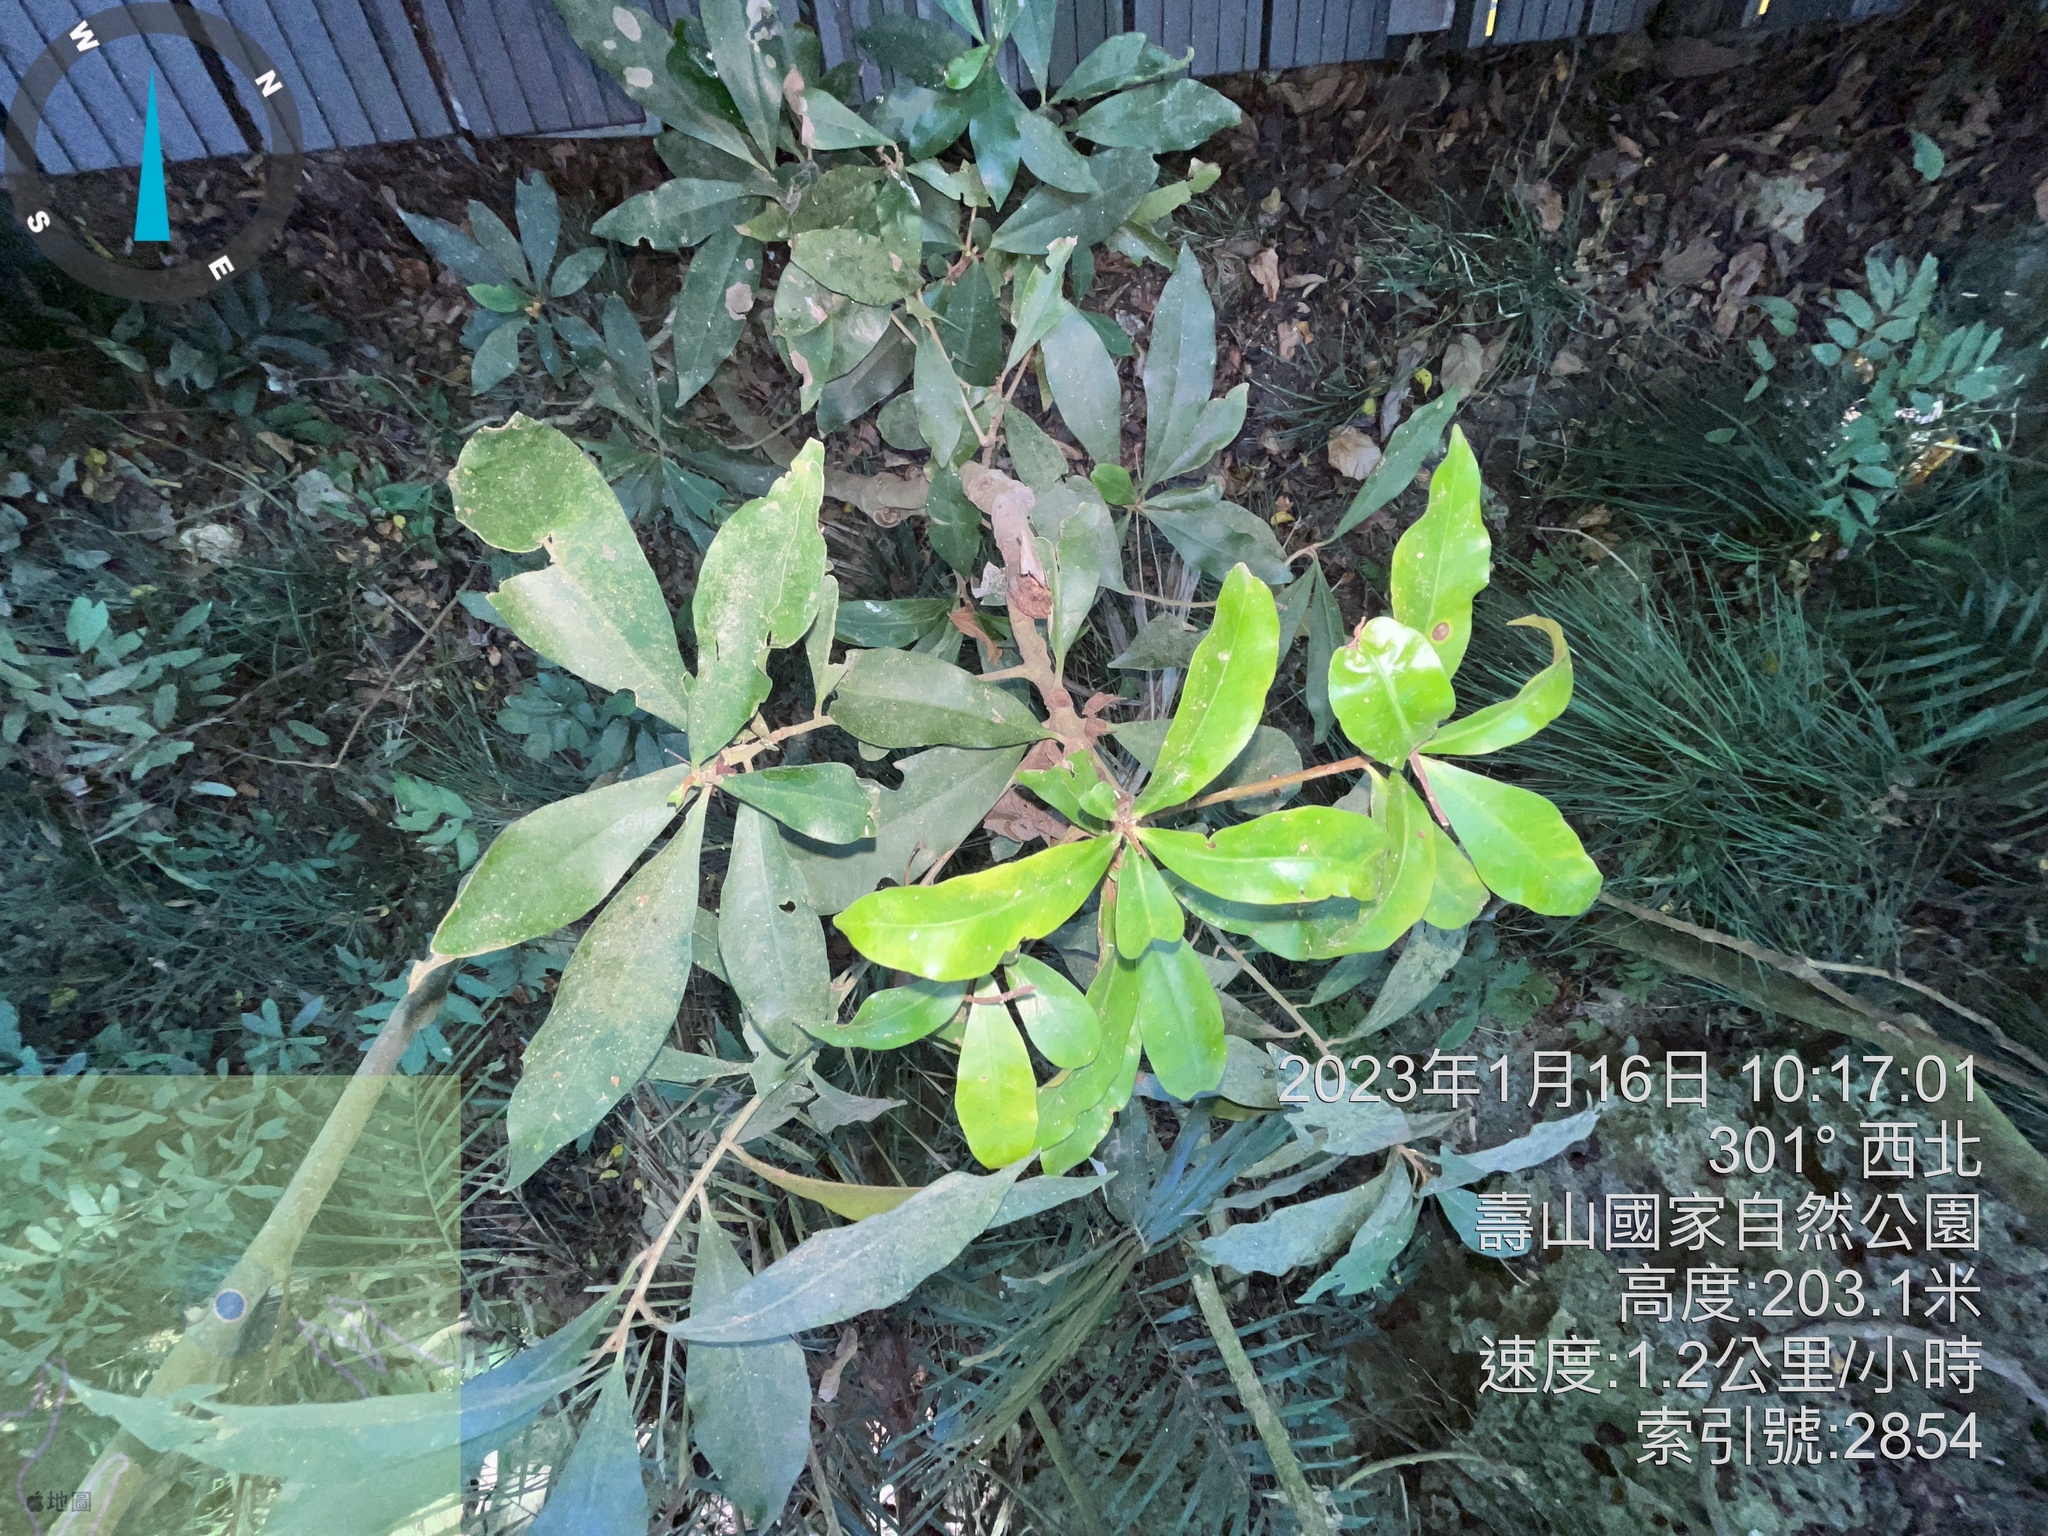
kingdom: Plantae
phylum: Tracheophyta
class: Magnoliopsida
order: Ericales
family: Primulaceae
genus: Ardisia
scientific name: Ardisia sieboldii
